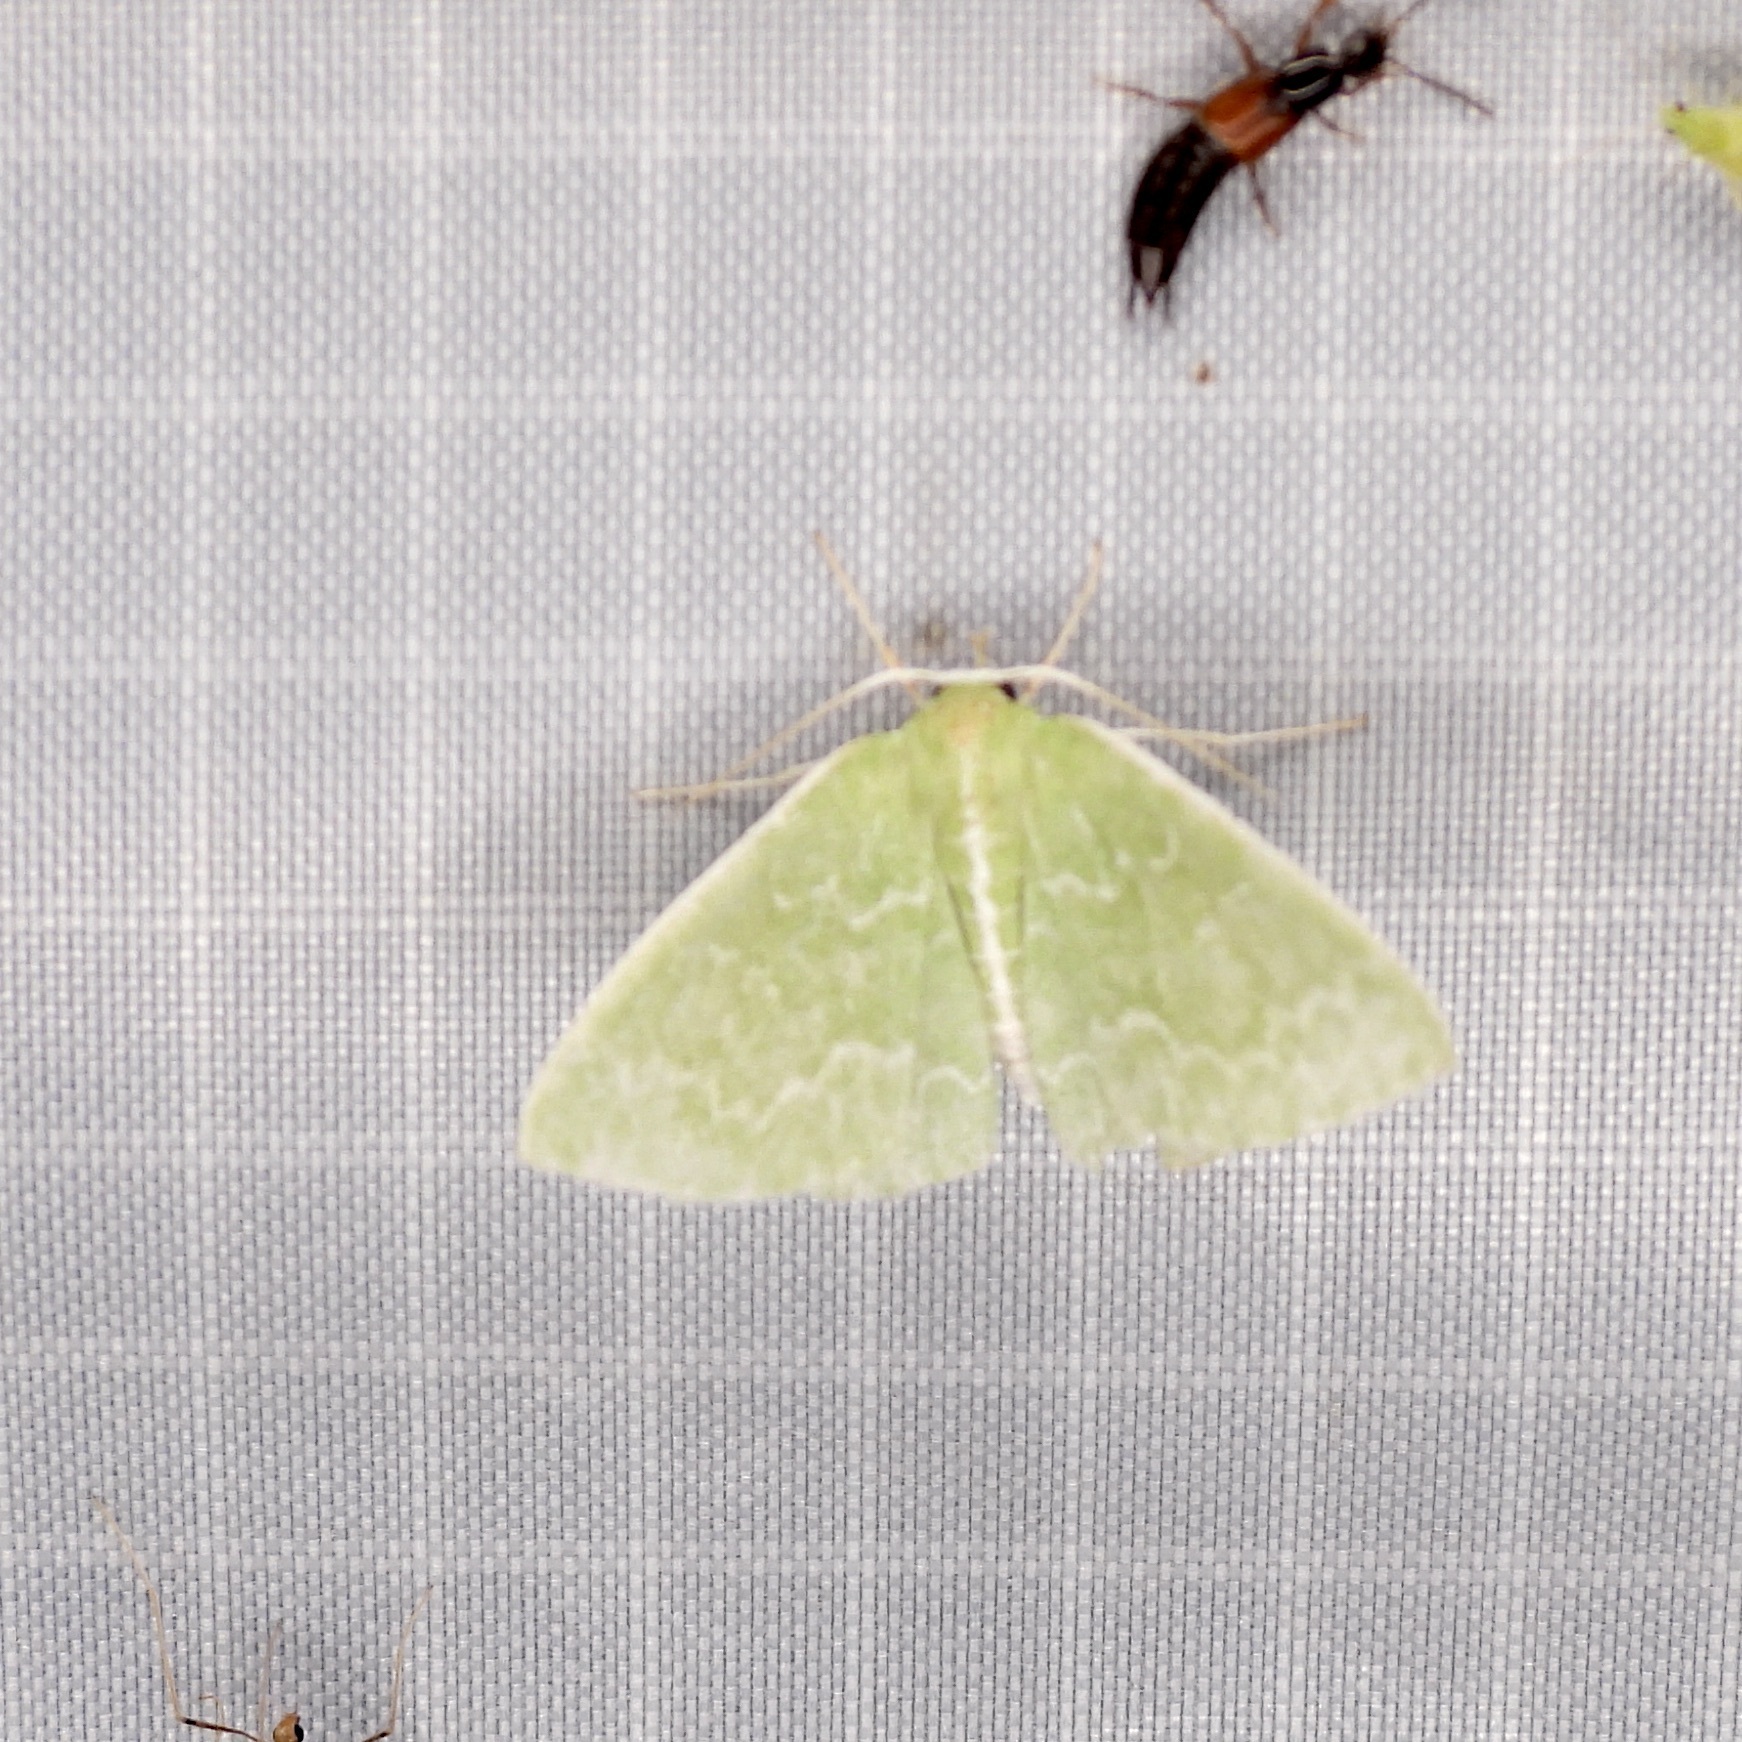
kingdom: Animalia
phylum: Arthropoda
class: Insecta
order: Lepidoptera
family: Geometridae
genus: Synchlora
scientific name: Synchlora frondaria
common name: Southern emerald
